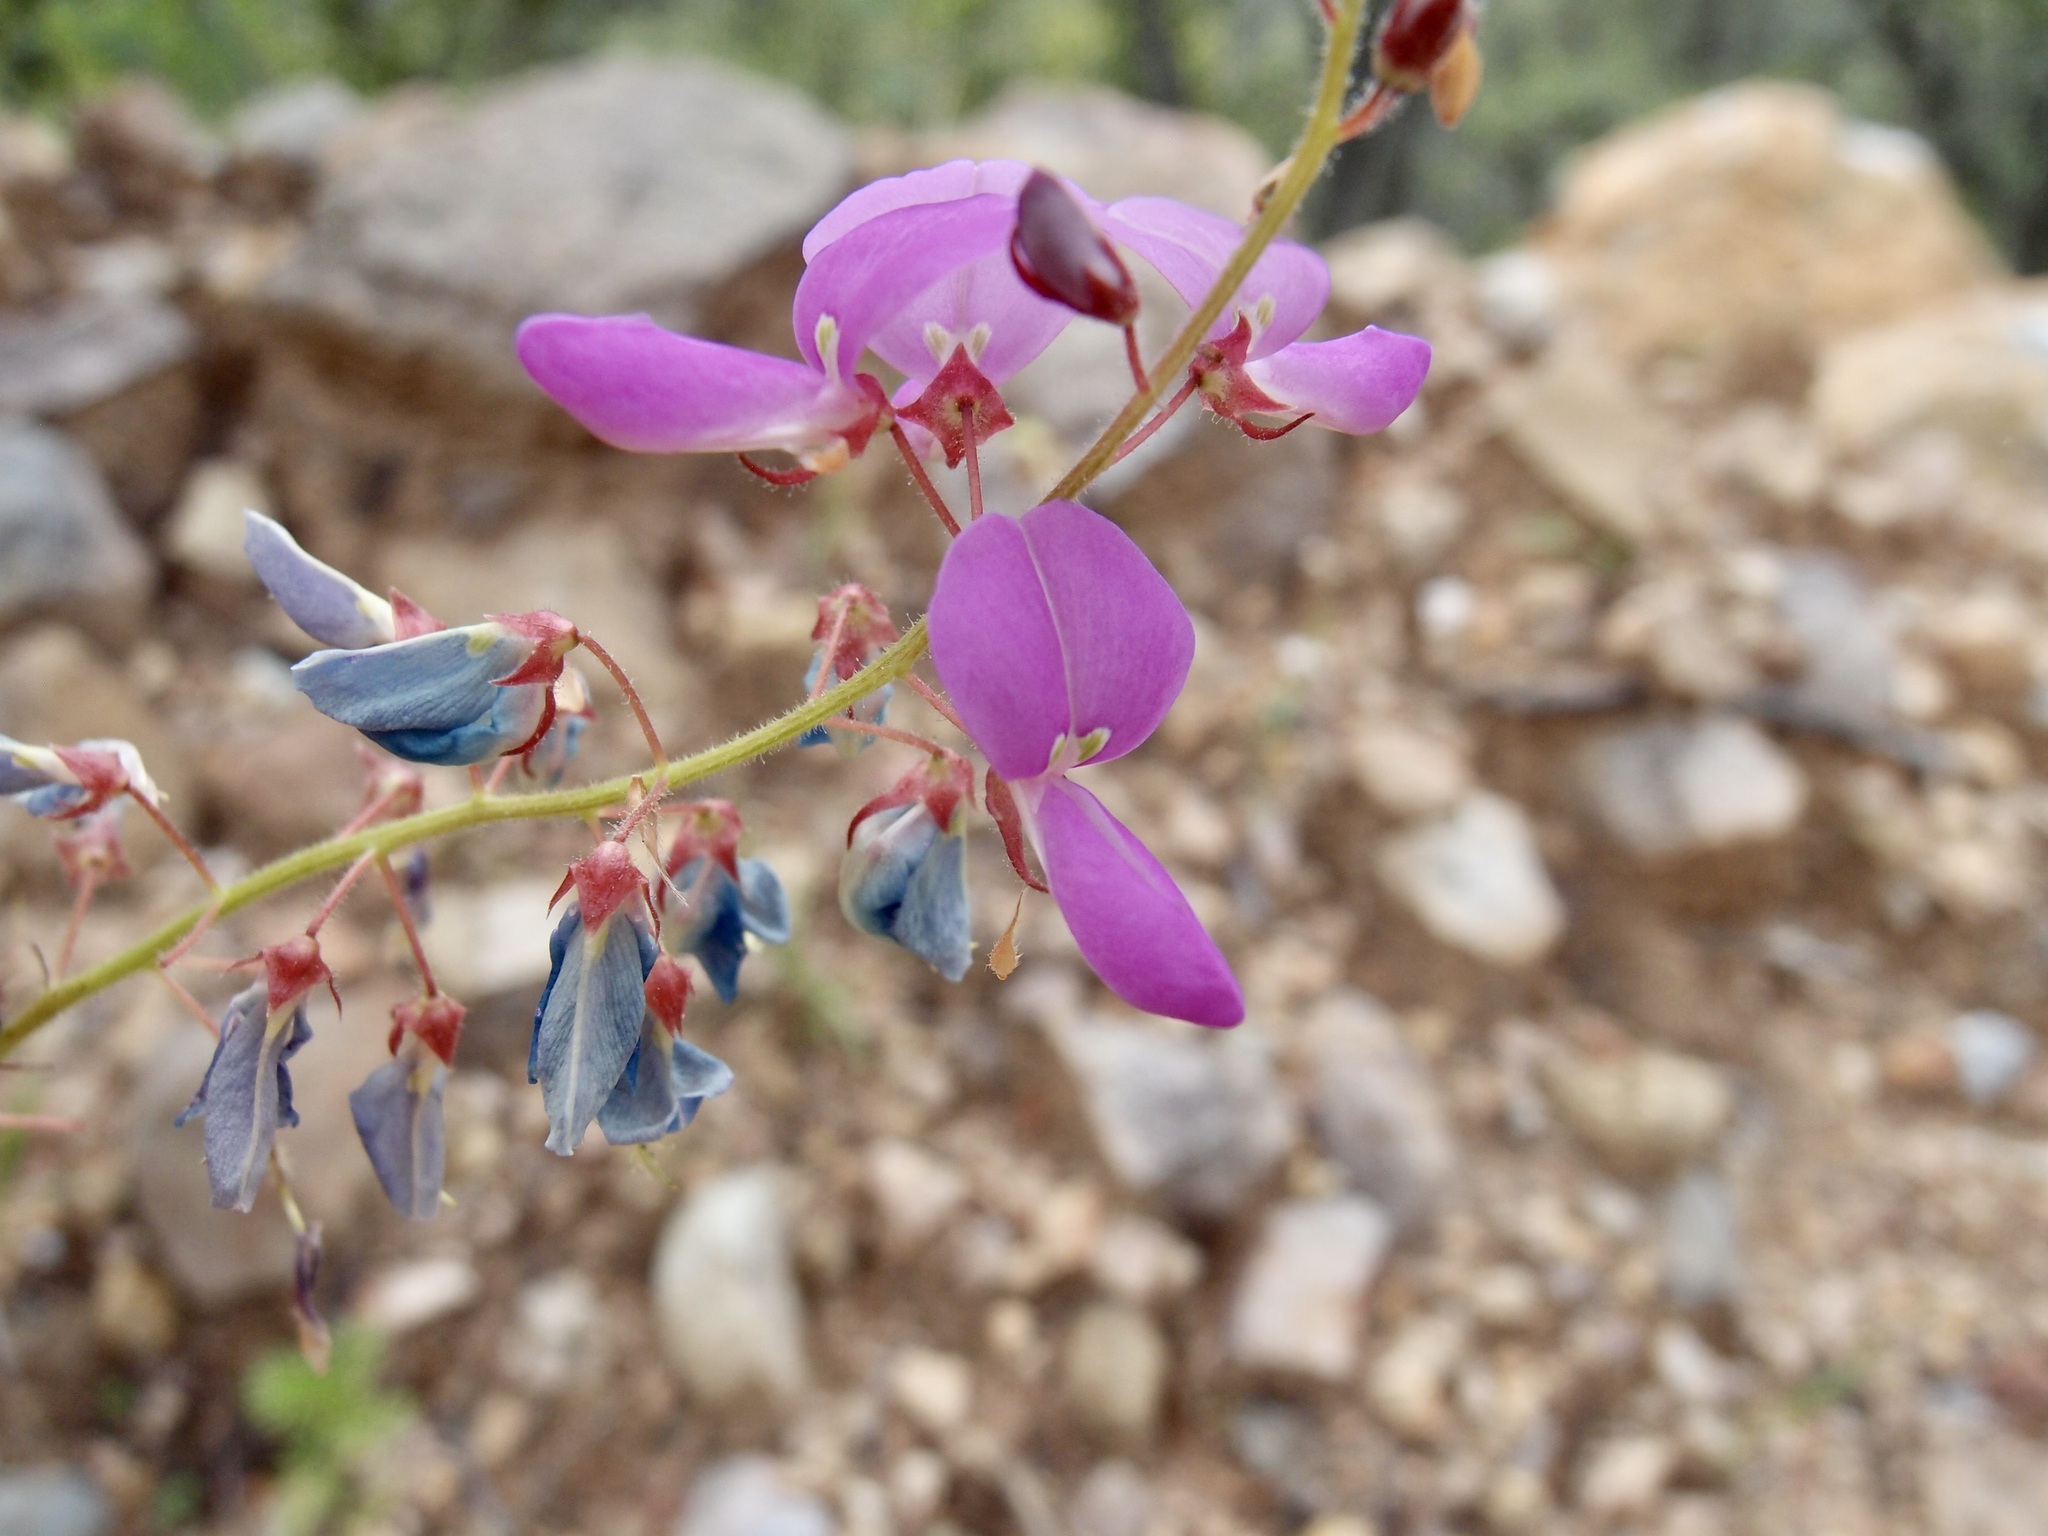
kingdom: Plantae
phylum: Tracheophyta
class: Magnoliopsida
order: Fabales
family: Fabaceae
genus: Desmodium
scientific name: Desmodium batocaulon
